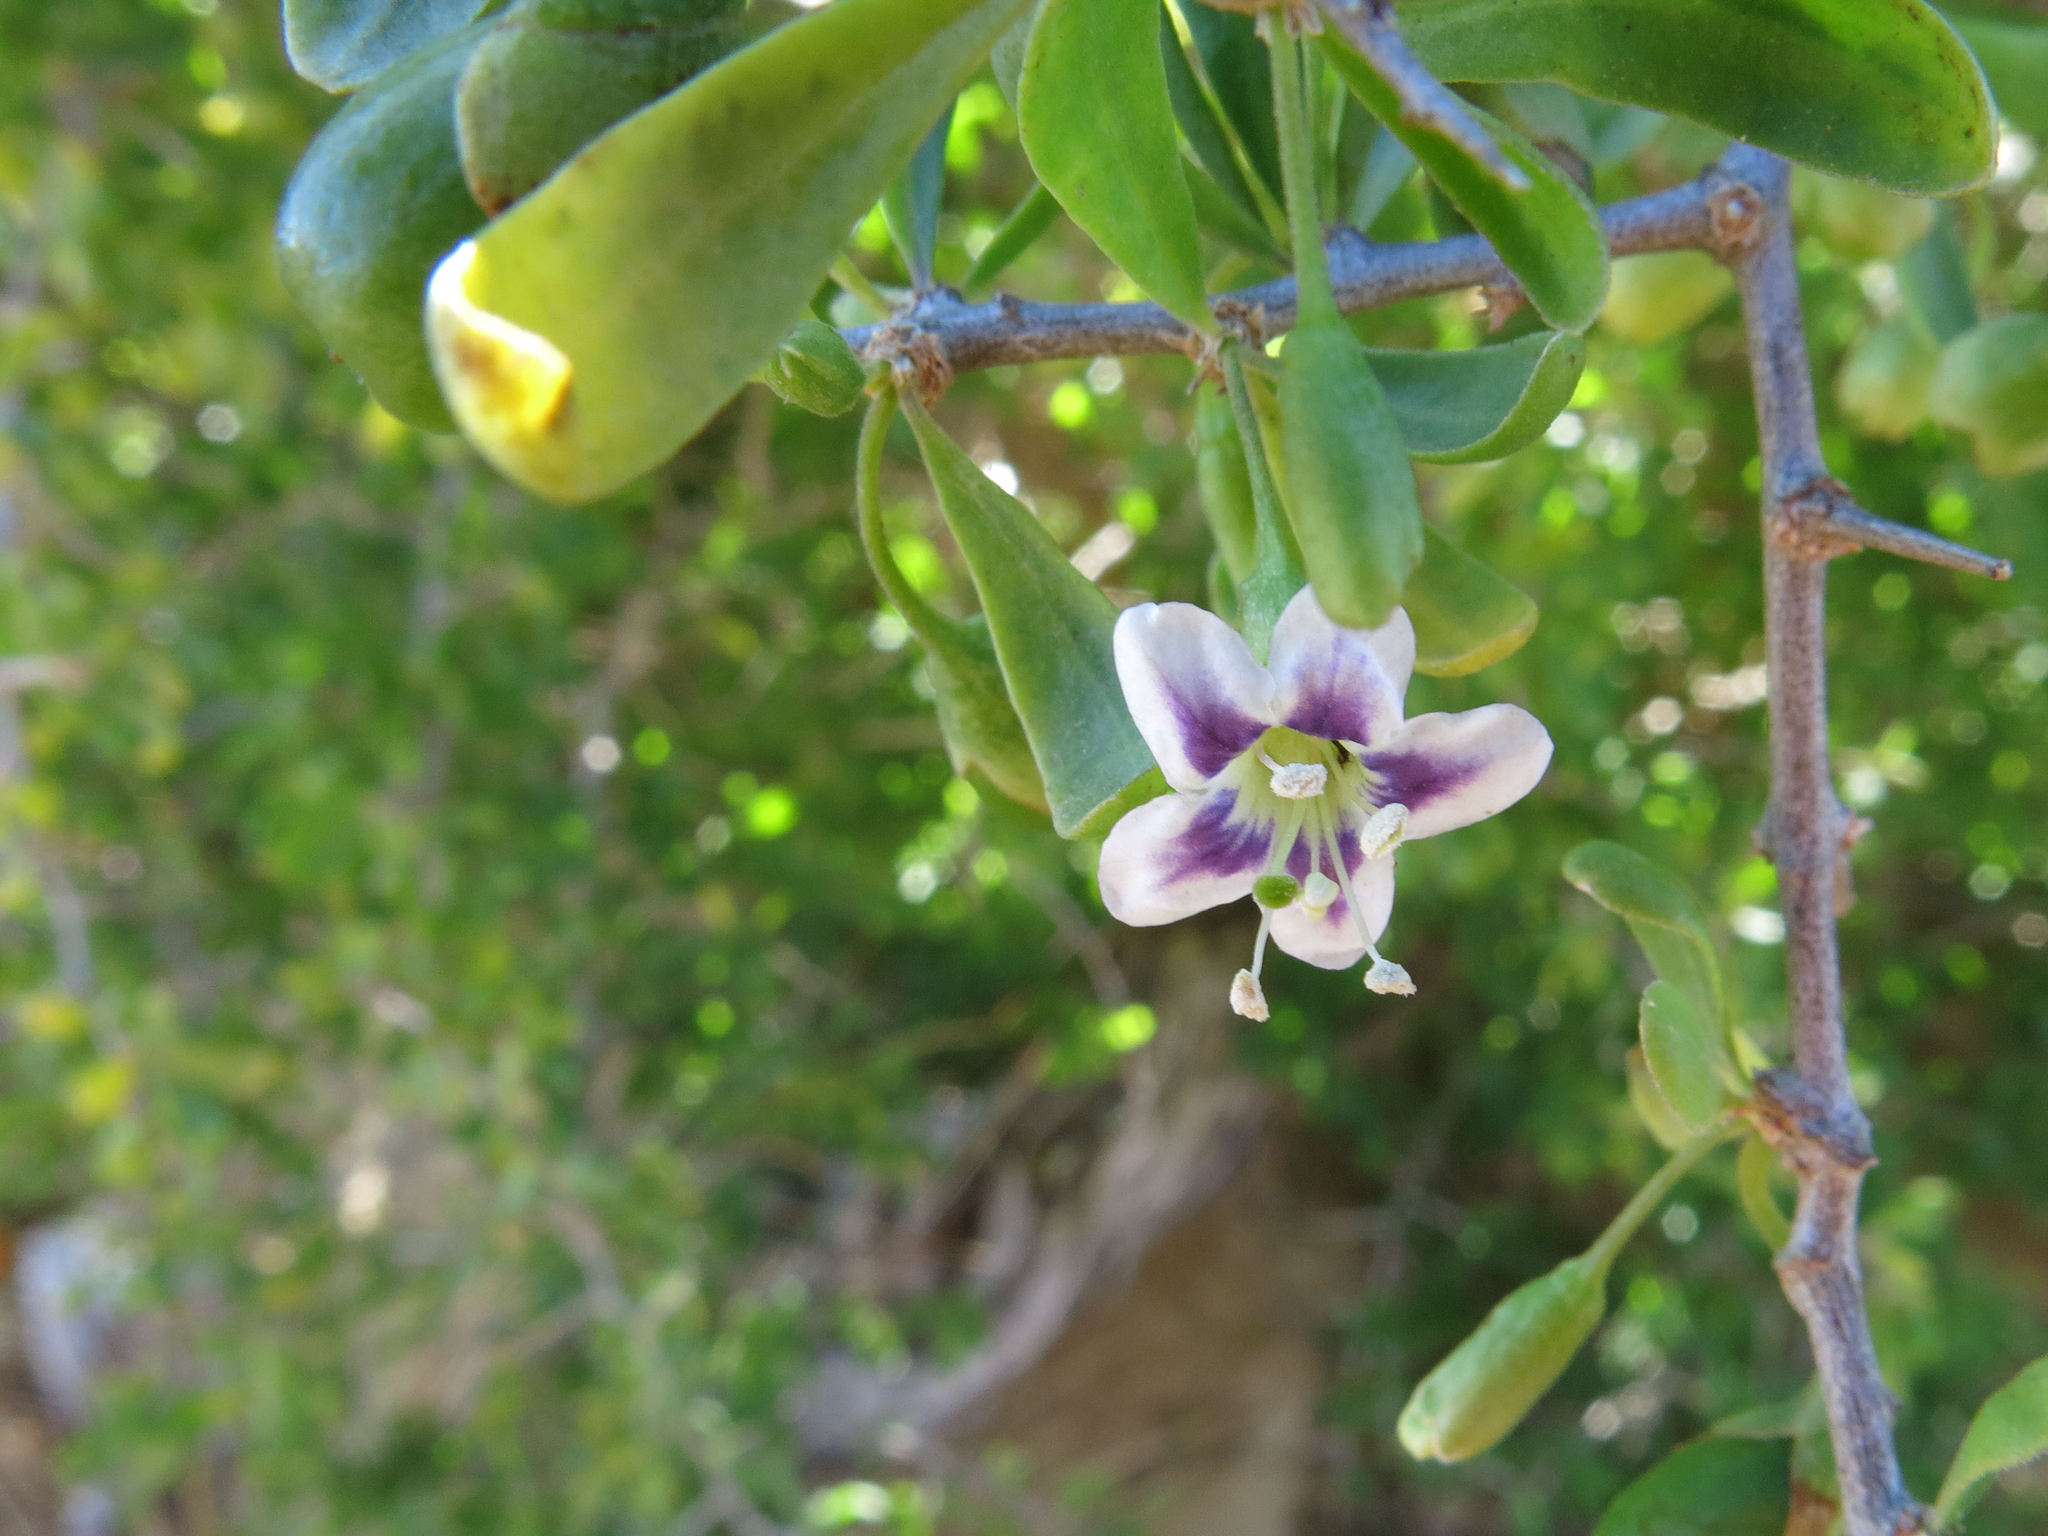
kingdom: Plantae
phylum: Tracheophyta
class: Magnoliopsida
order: Solanales
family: Solanaceae
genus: Lycium
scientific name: Lycium ferocissimum
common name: African boxthorn
